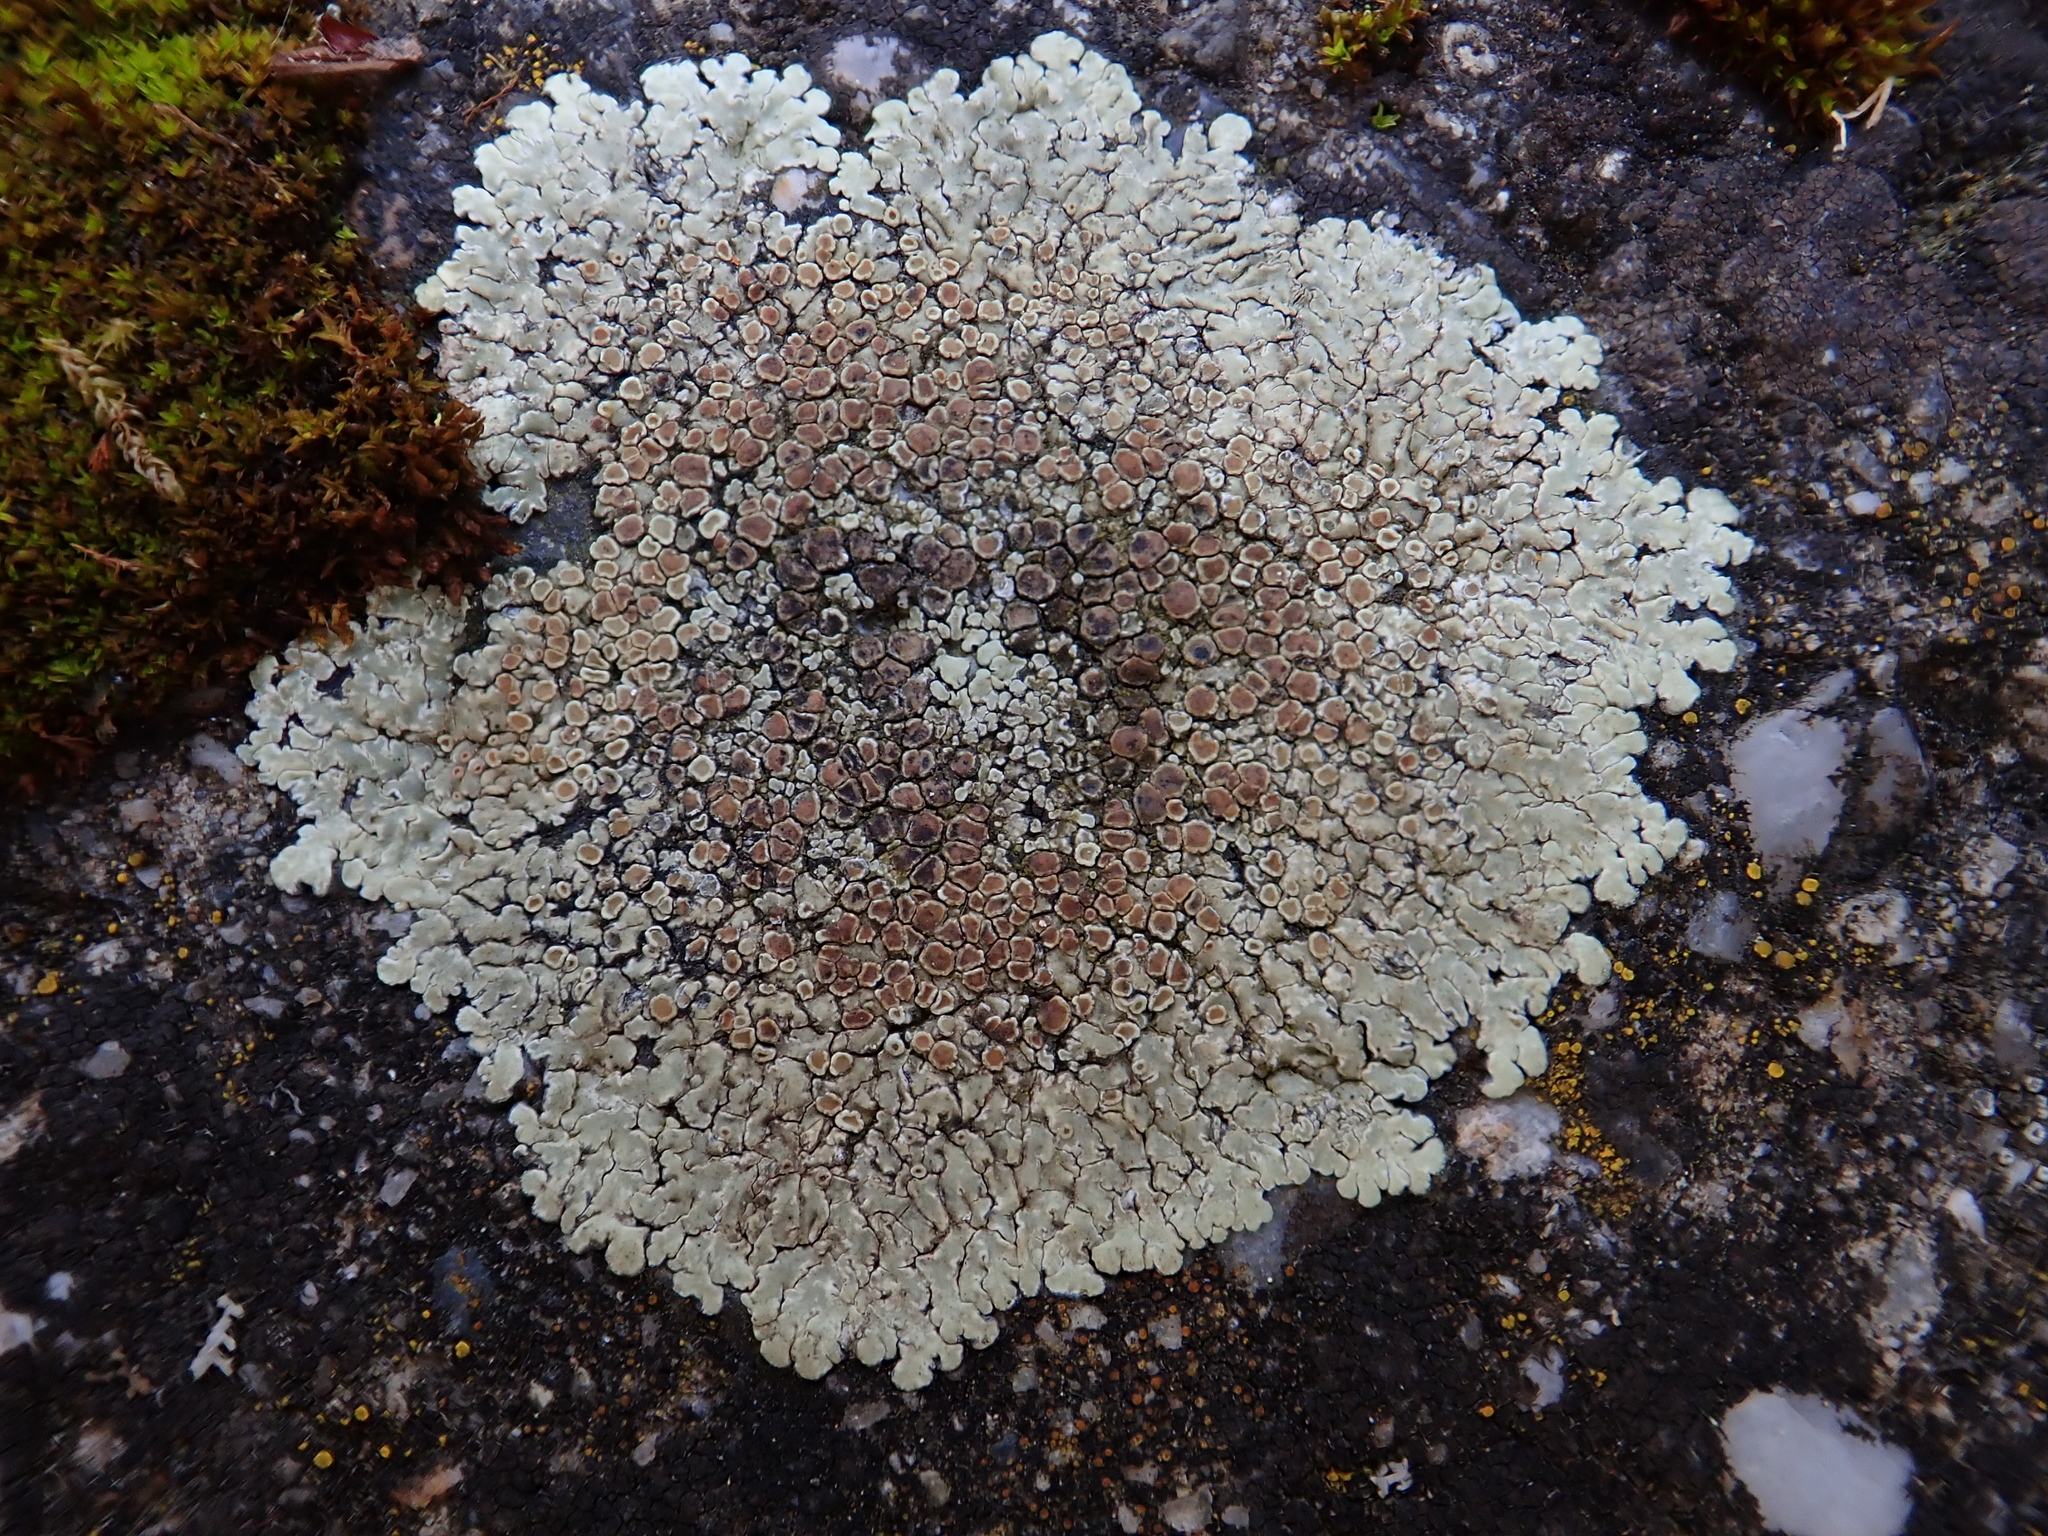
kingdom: Fungi
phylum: Ascomycota
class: Lecanoromycetes
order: Lecanorales
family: Lecanoraceae
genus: Protoparmeliopsis
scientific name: Protoparmeliopsis muralis
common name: Stonewall rim lichen
